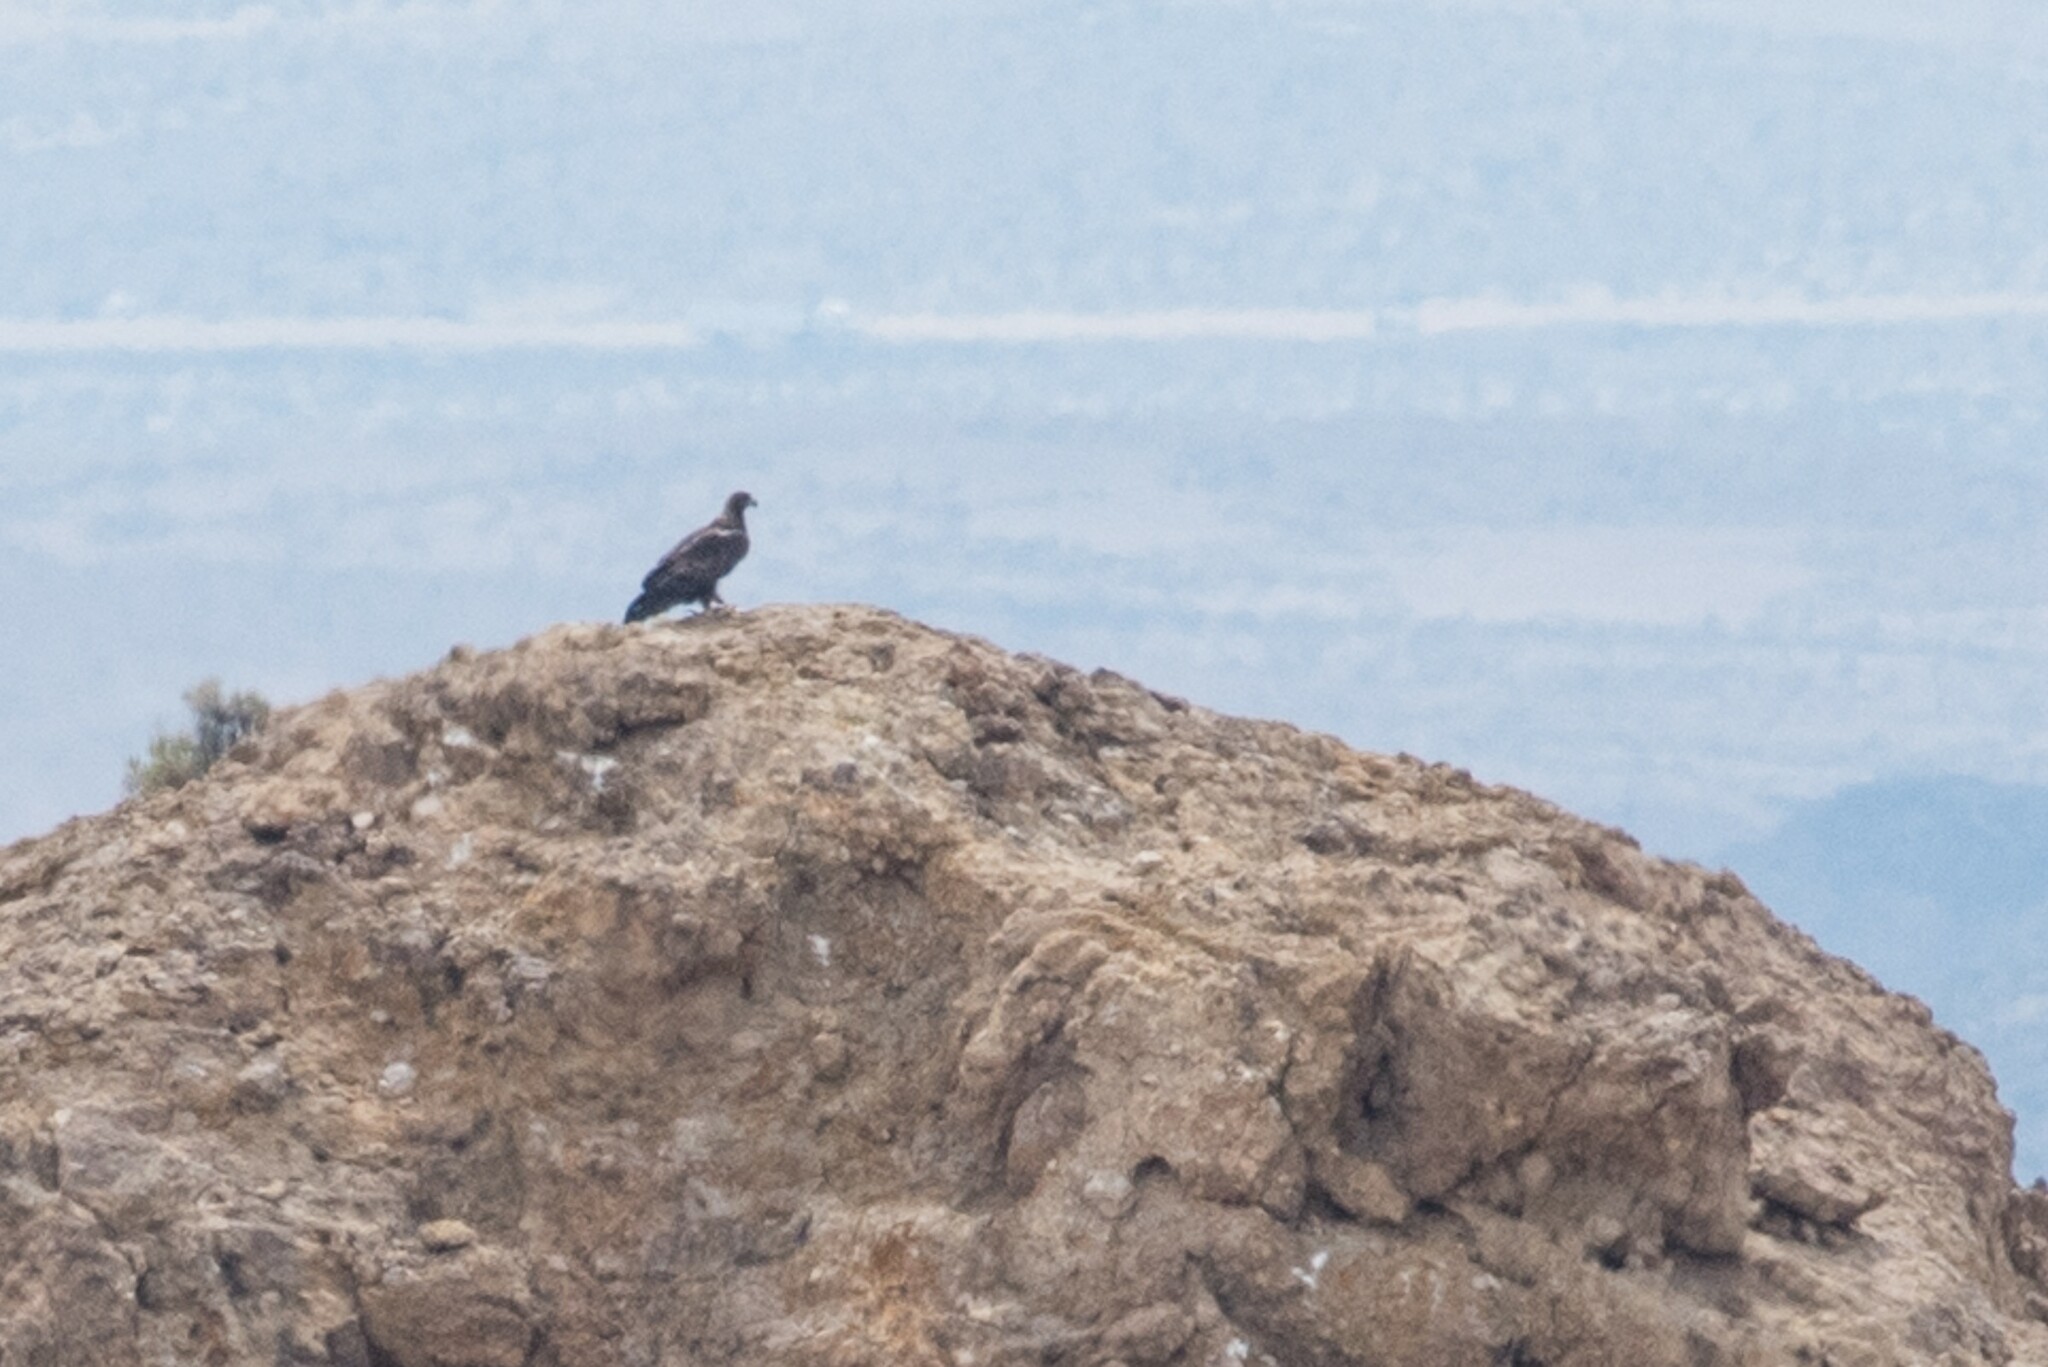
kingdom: Animalia
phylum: Chordata
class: Aves
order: Accipitriformes
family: Accipitridae
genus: Aquila
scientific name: Aquila chrysaetos
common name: Golden eagle
